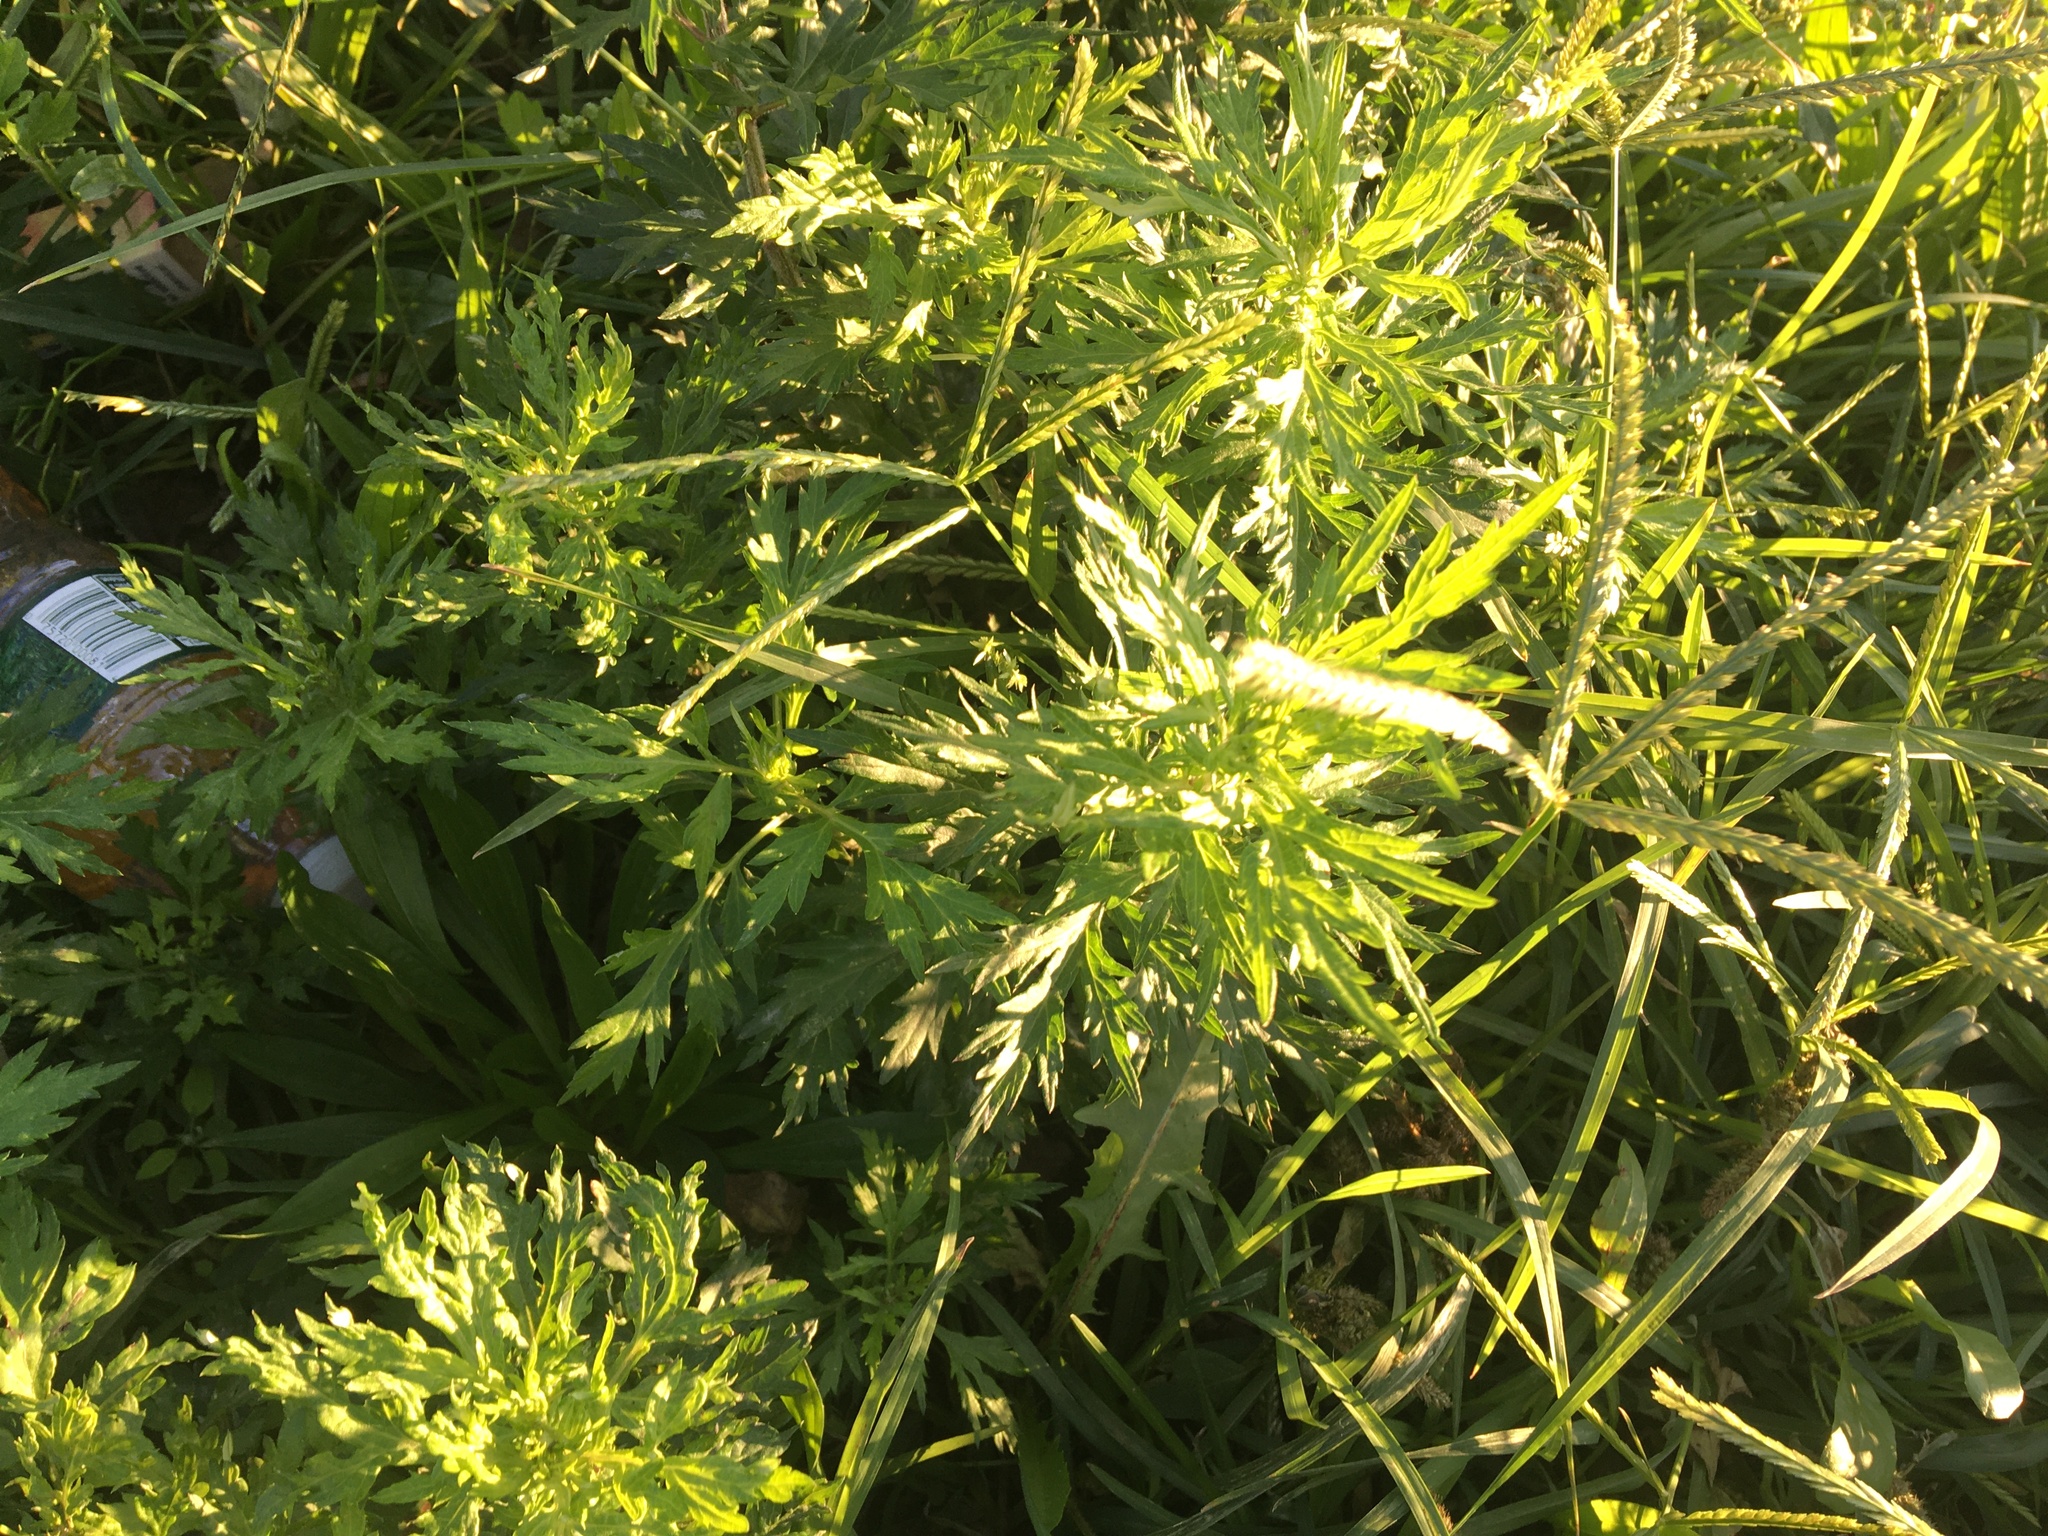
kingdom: Plantae
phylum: Tracheophyta
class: Magnoliopsida
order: Asterales
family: Asteraceae
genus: Artemisia
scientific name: Artemisia vulgaris
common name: Mugwort
